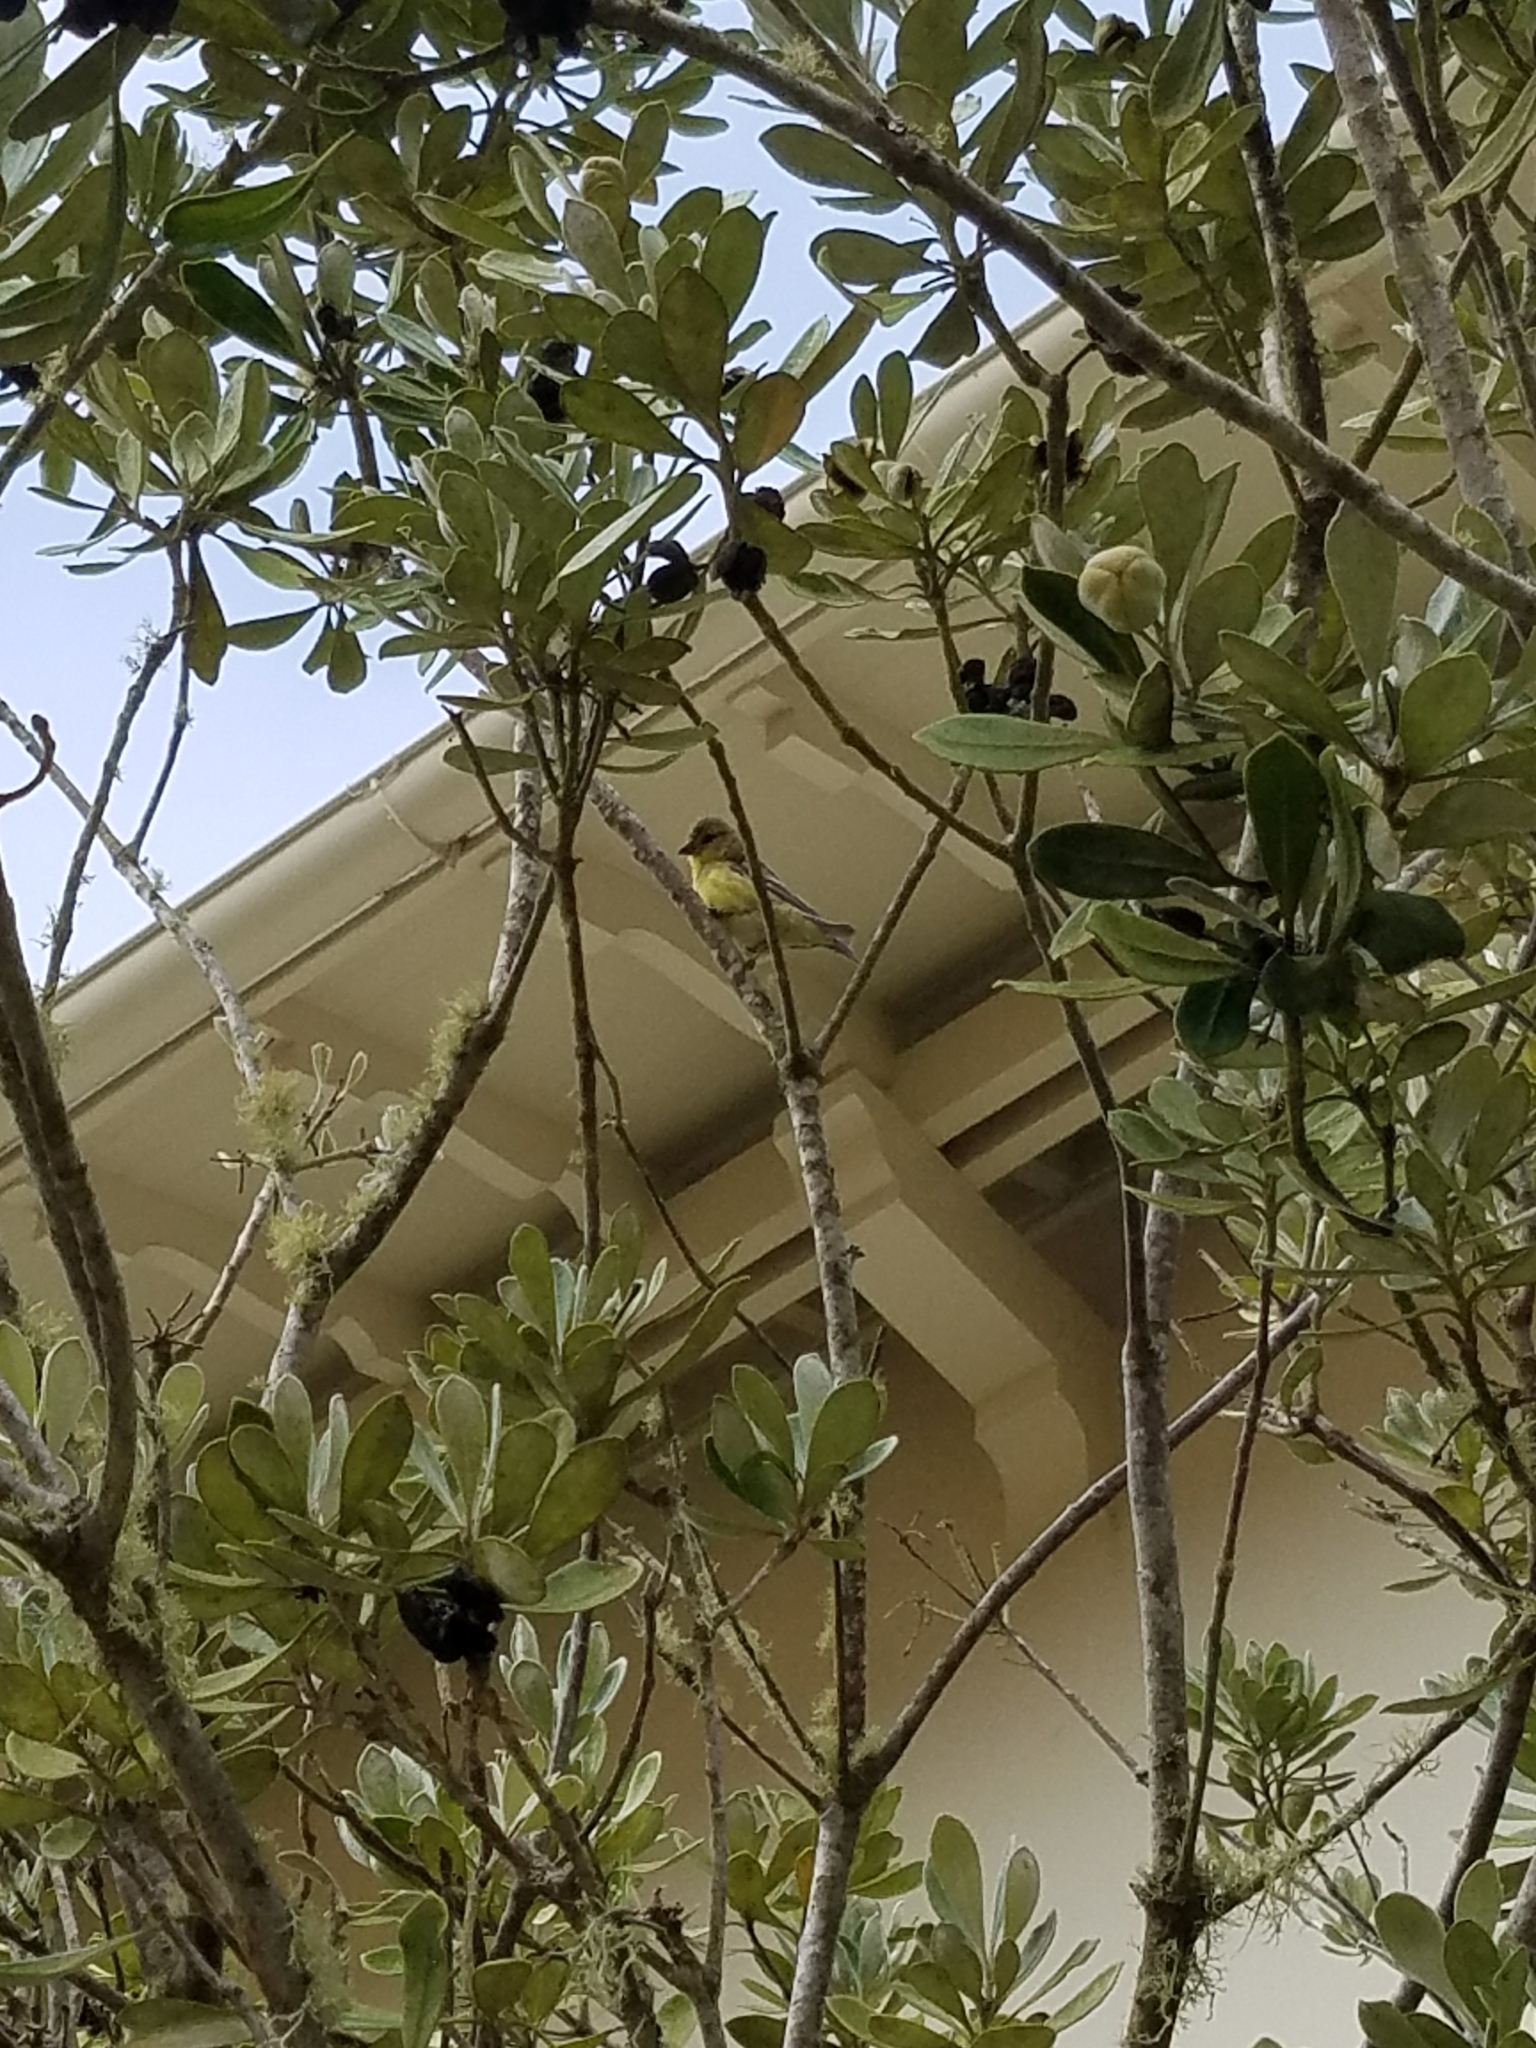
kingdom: Animalia
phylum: Chordata
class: Aves
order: Passeriformes
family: Fringillidae
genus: Spinus
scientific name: Spinus psaltria
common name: Lesser goldfinch
